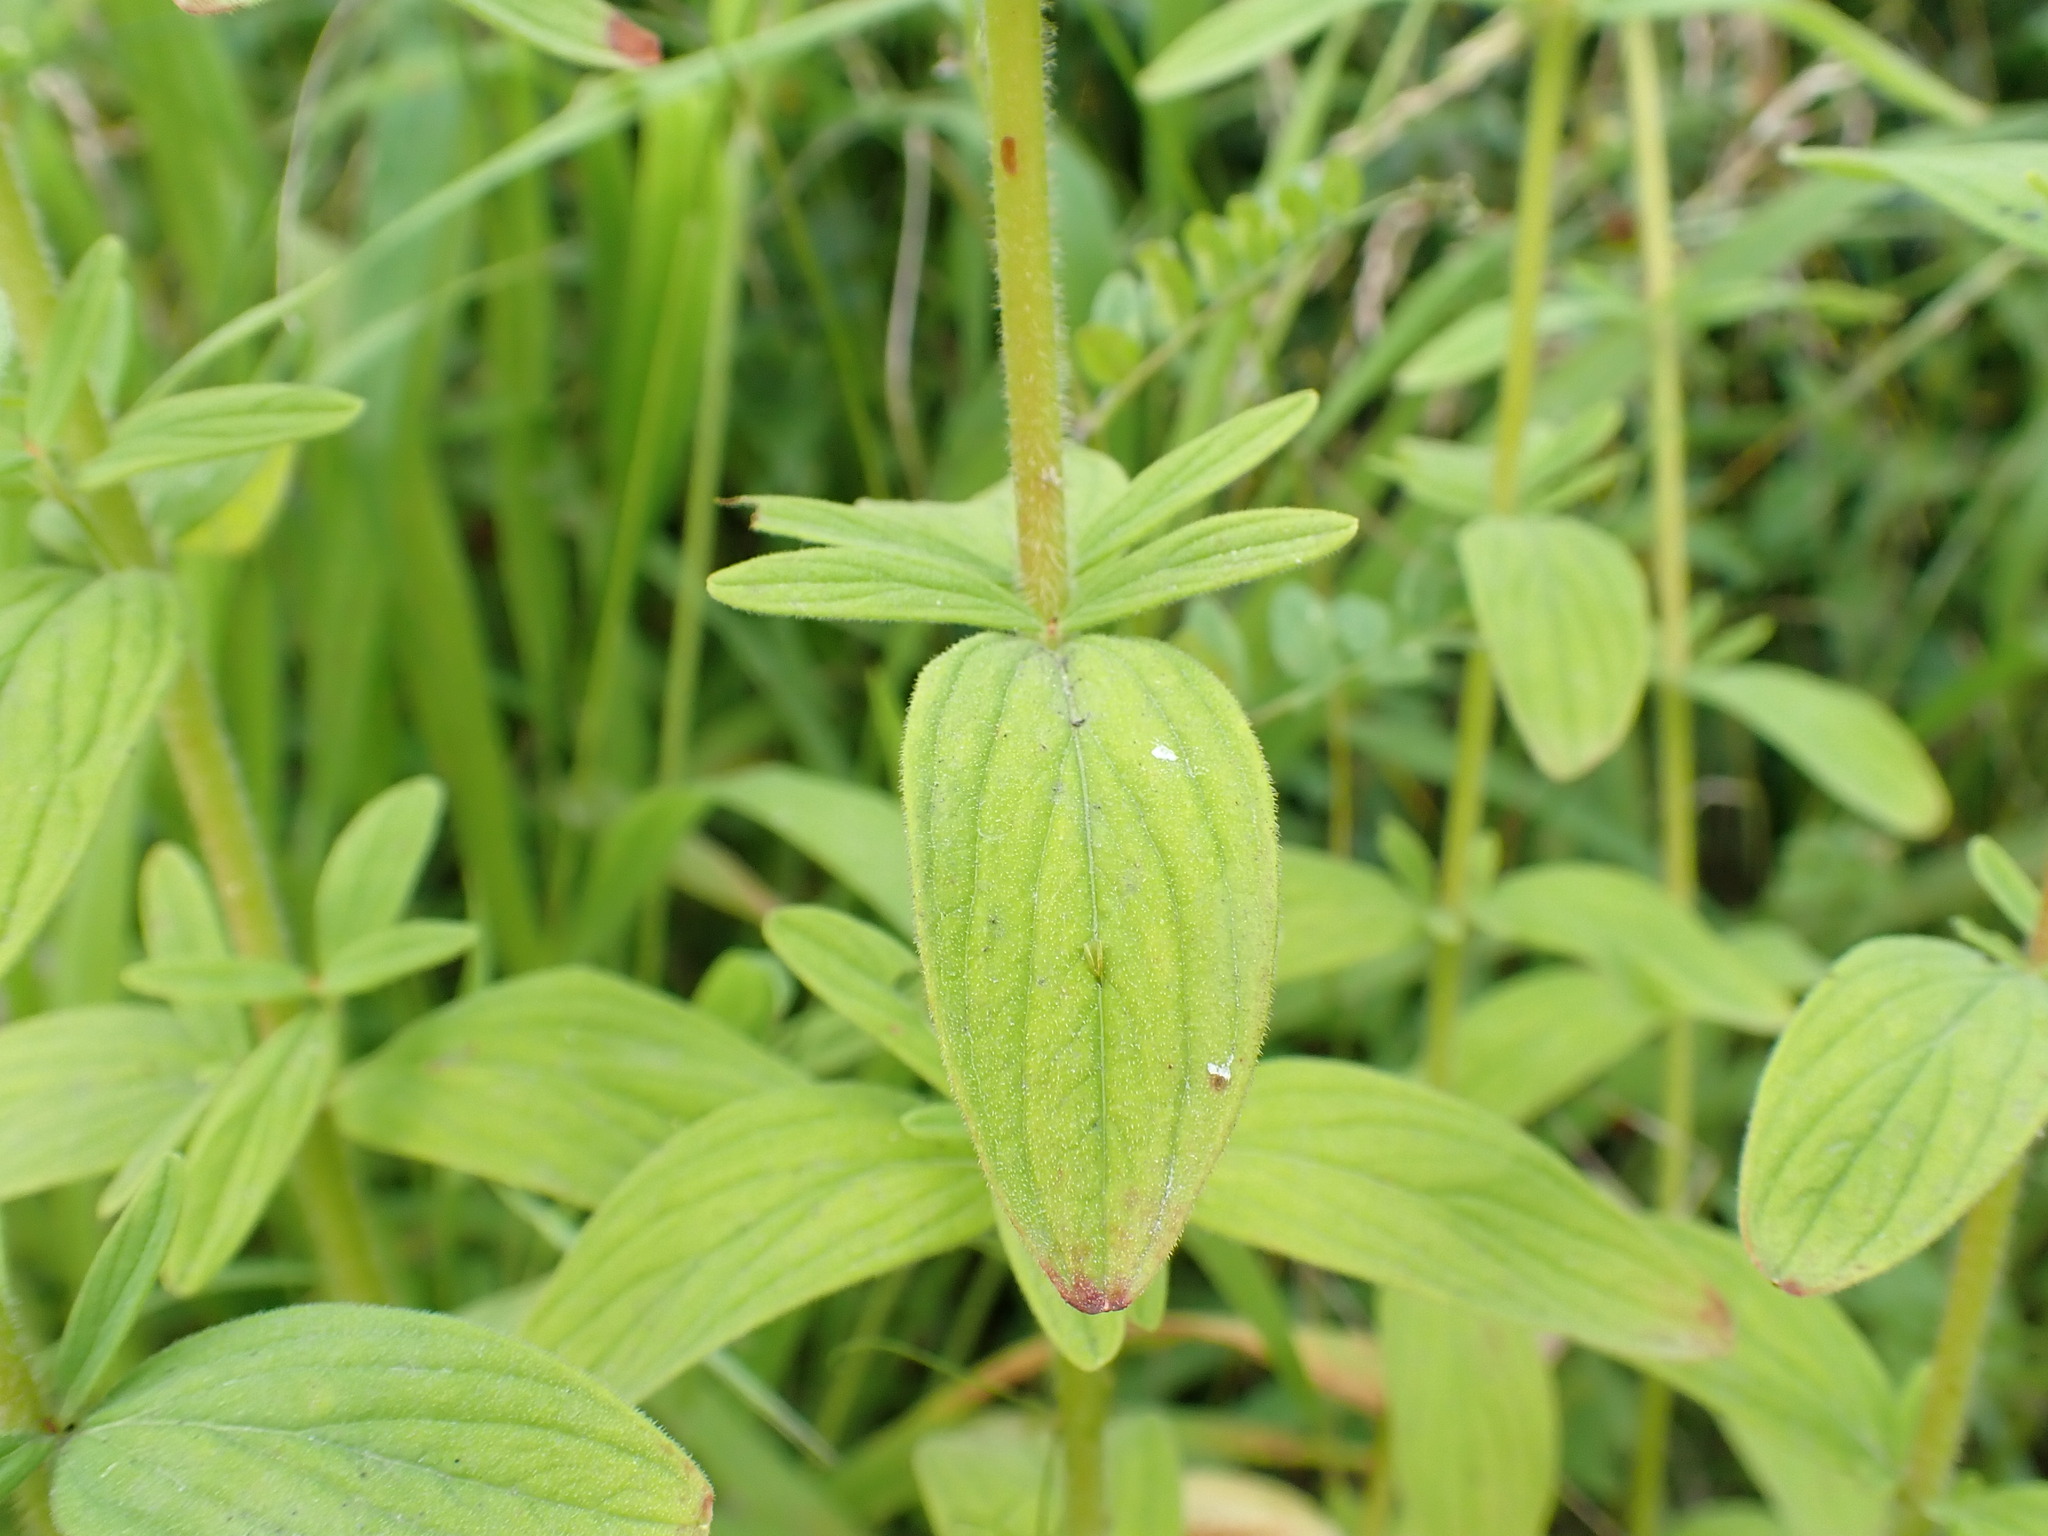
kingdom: Plantae
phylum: Tracheophyta
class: Magnoliopsida
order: Malpighiales
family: Hypericaceae
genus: Hypericum
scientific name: Hypericum hirsutum
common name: Hairy st. john's-wort
